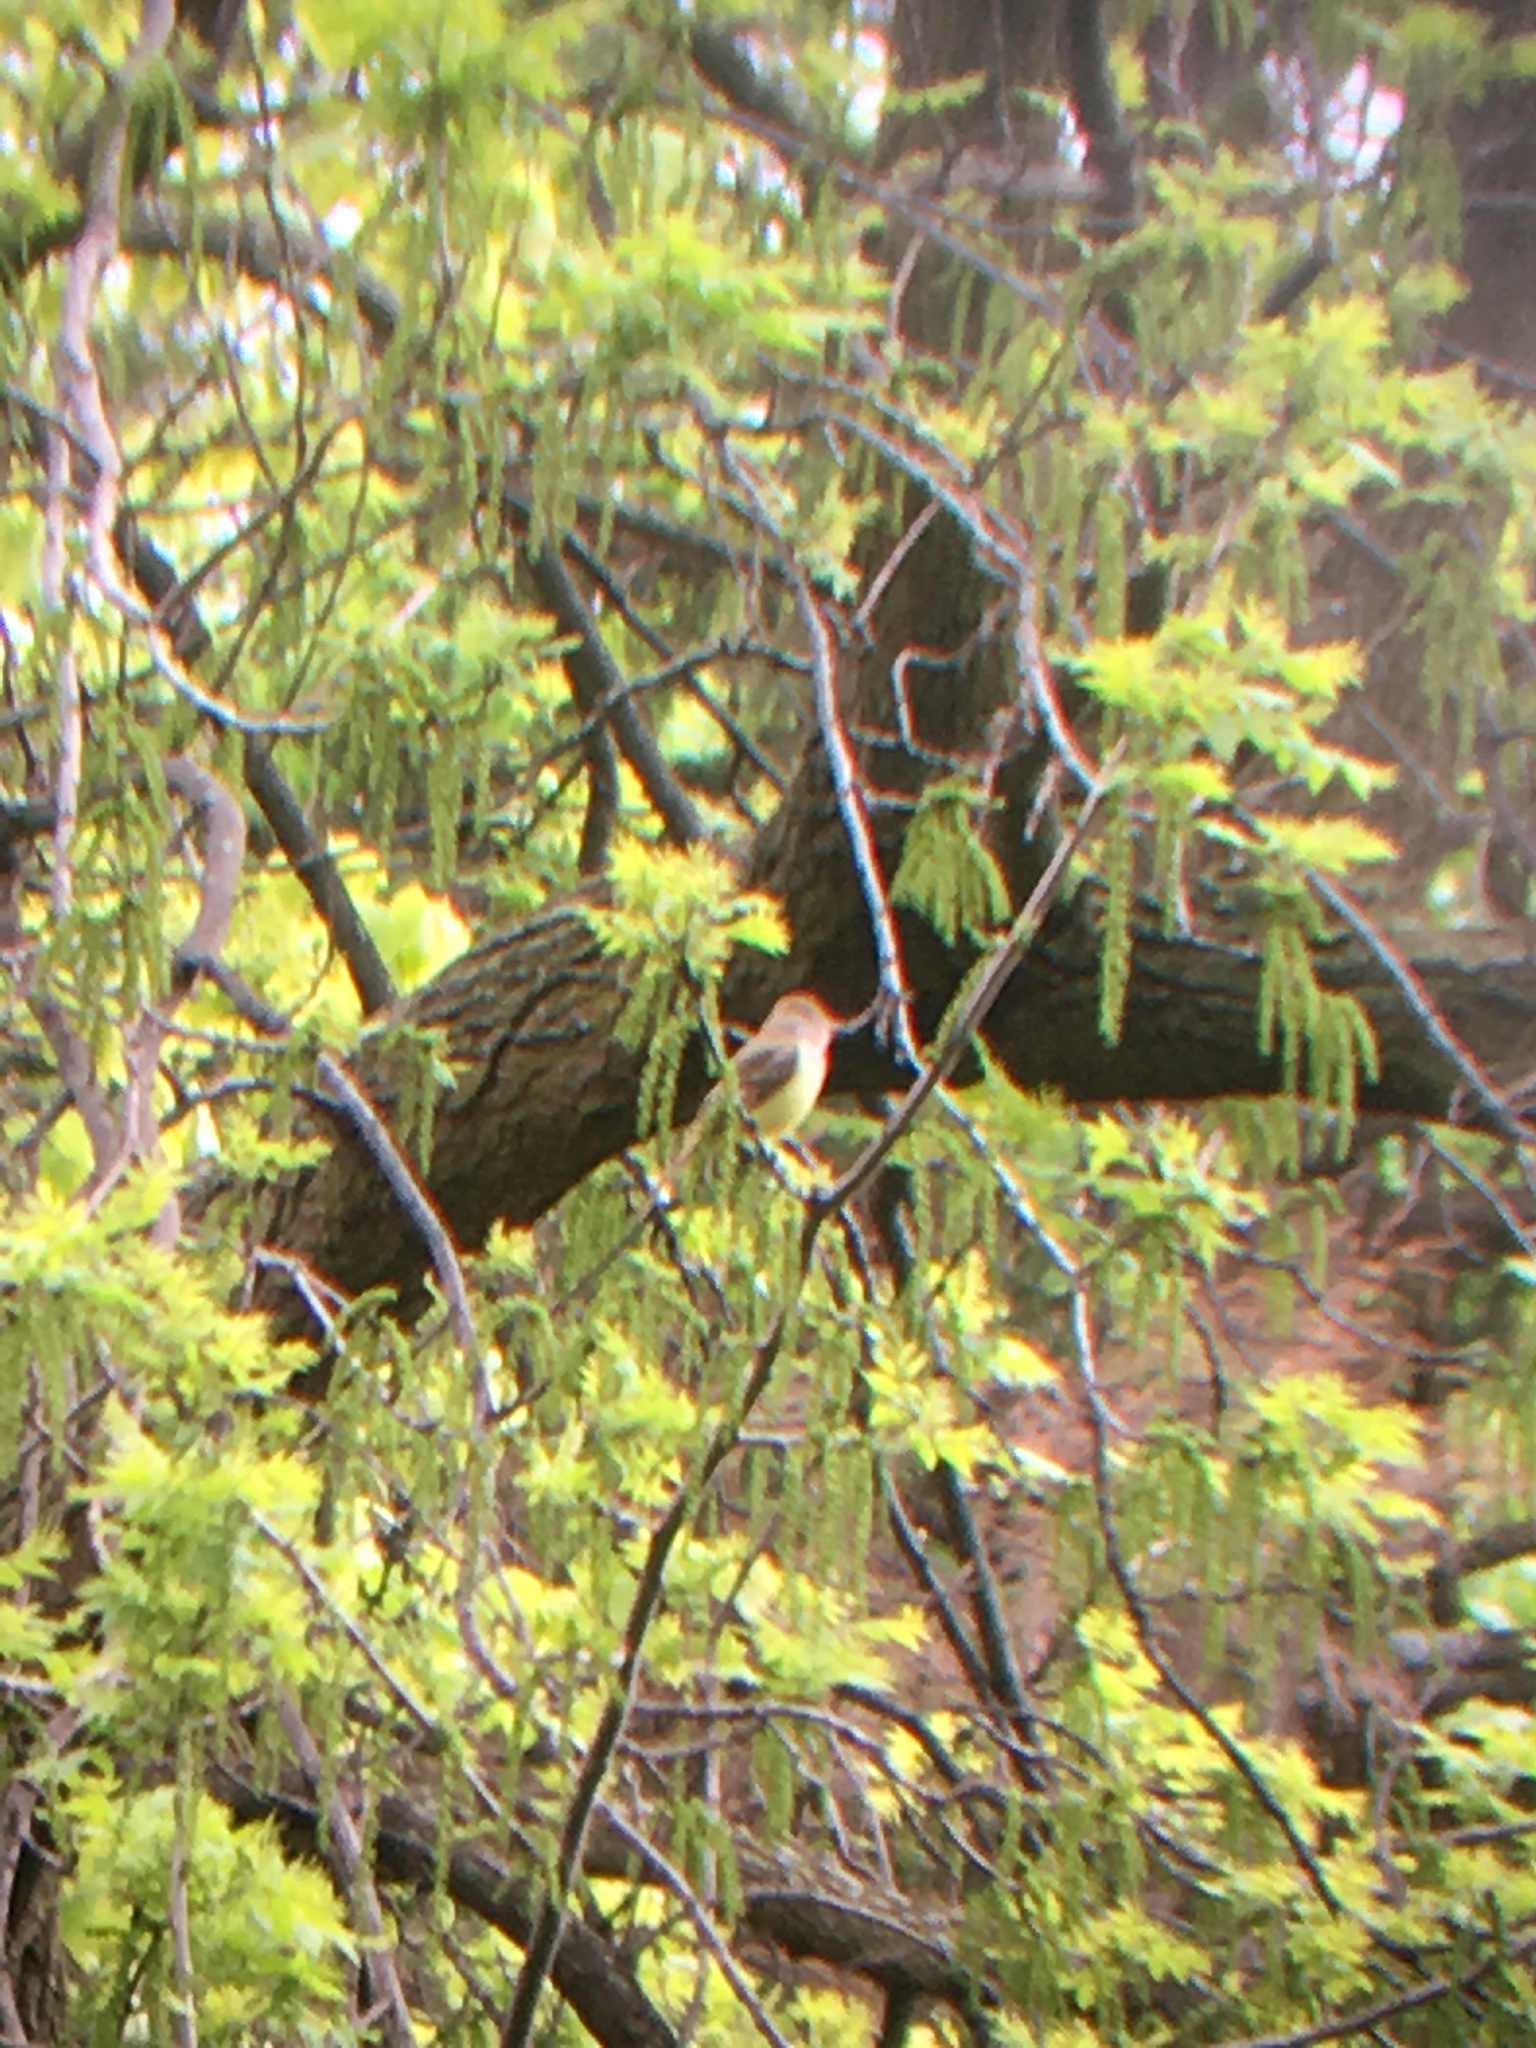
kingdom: Animalia
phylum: Chordata
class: Aves
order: Passeriformes
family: Tyrannidae
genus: Myiarchus
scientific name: Myiarchus crinitus
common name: Great crested flycatcher
